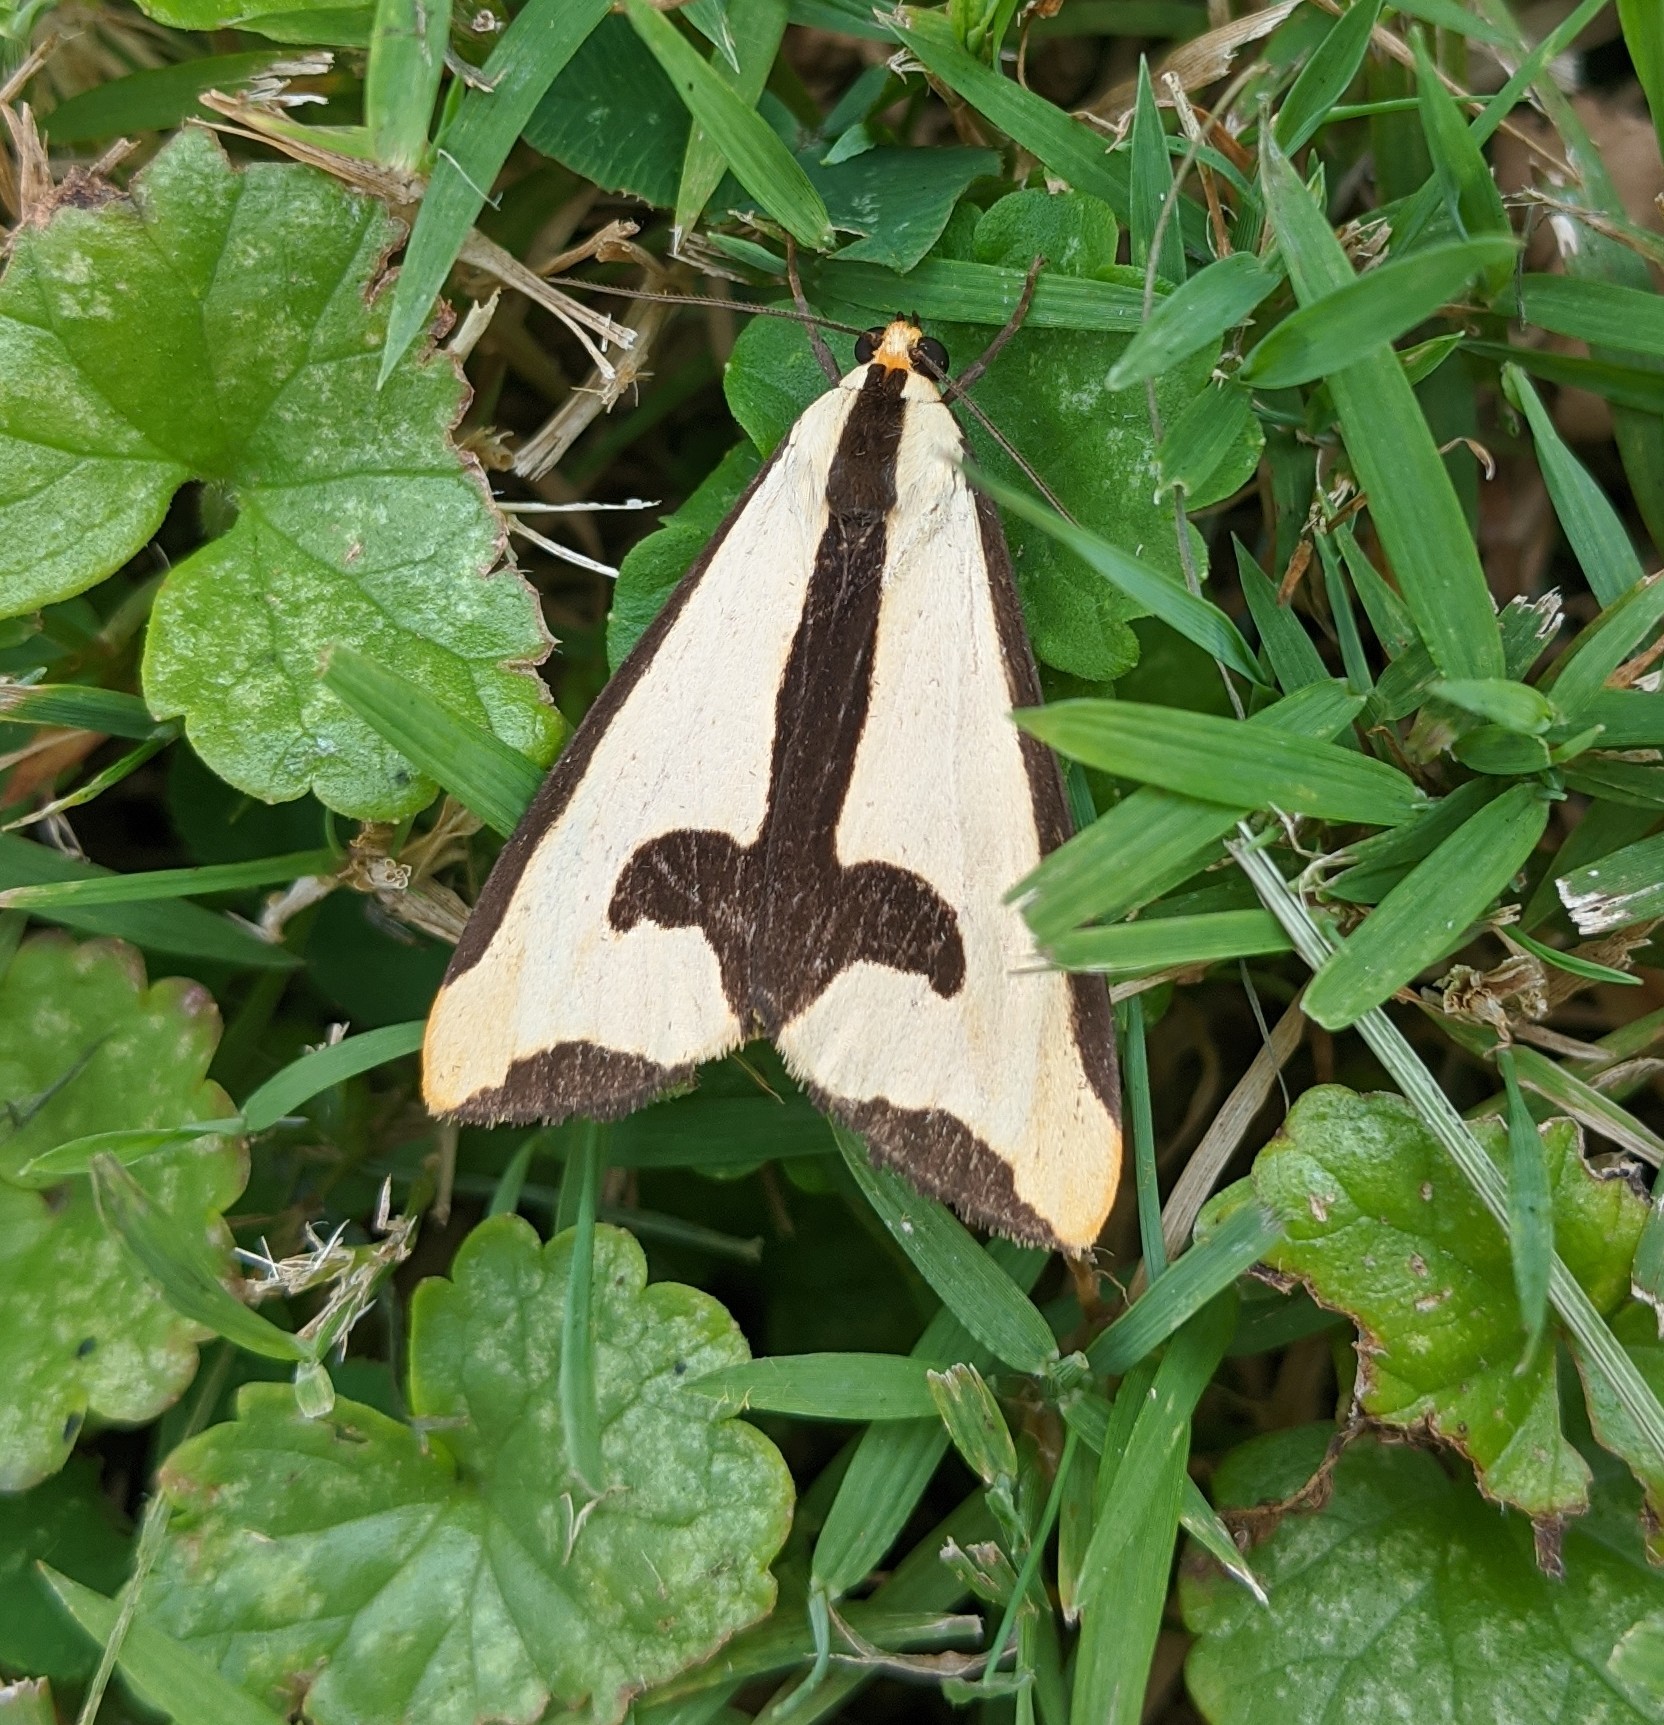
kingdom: Animalia
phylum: Arthropoda
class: Insecta
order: Lepidoptera
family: Erebidae
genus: Haploa
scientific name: Haploa clymene
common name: Clymene moth
